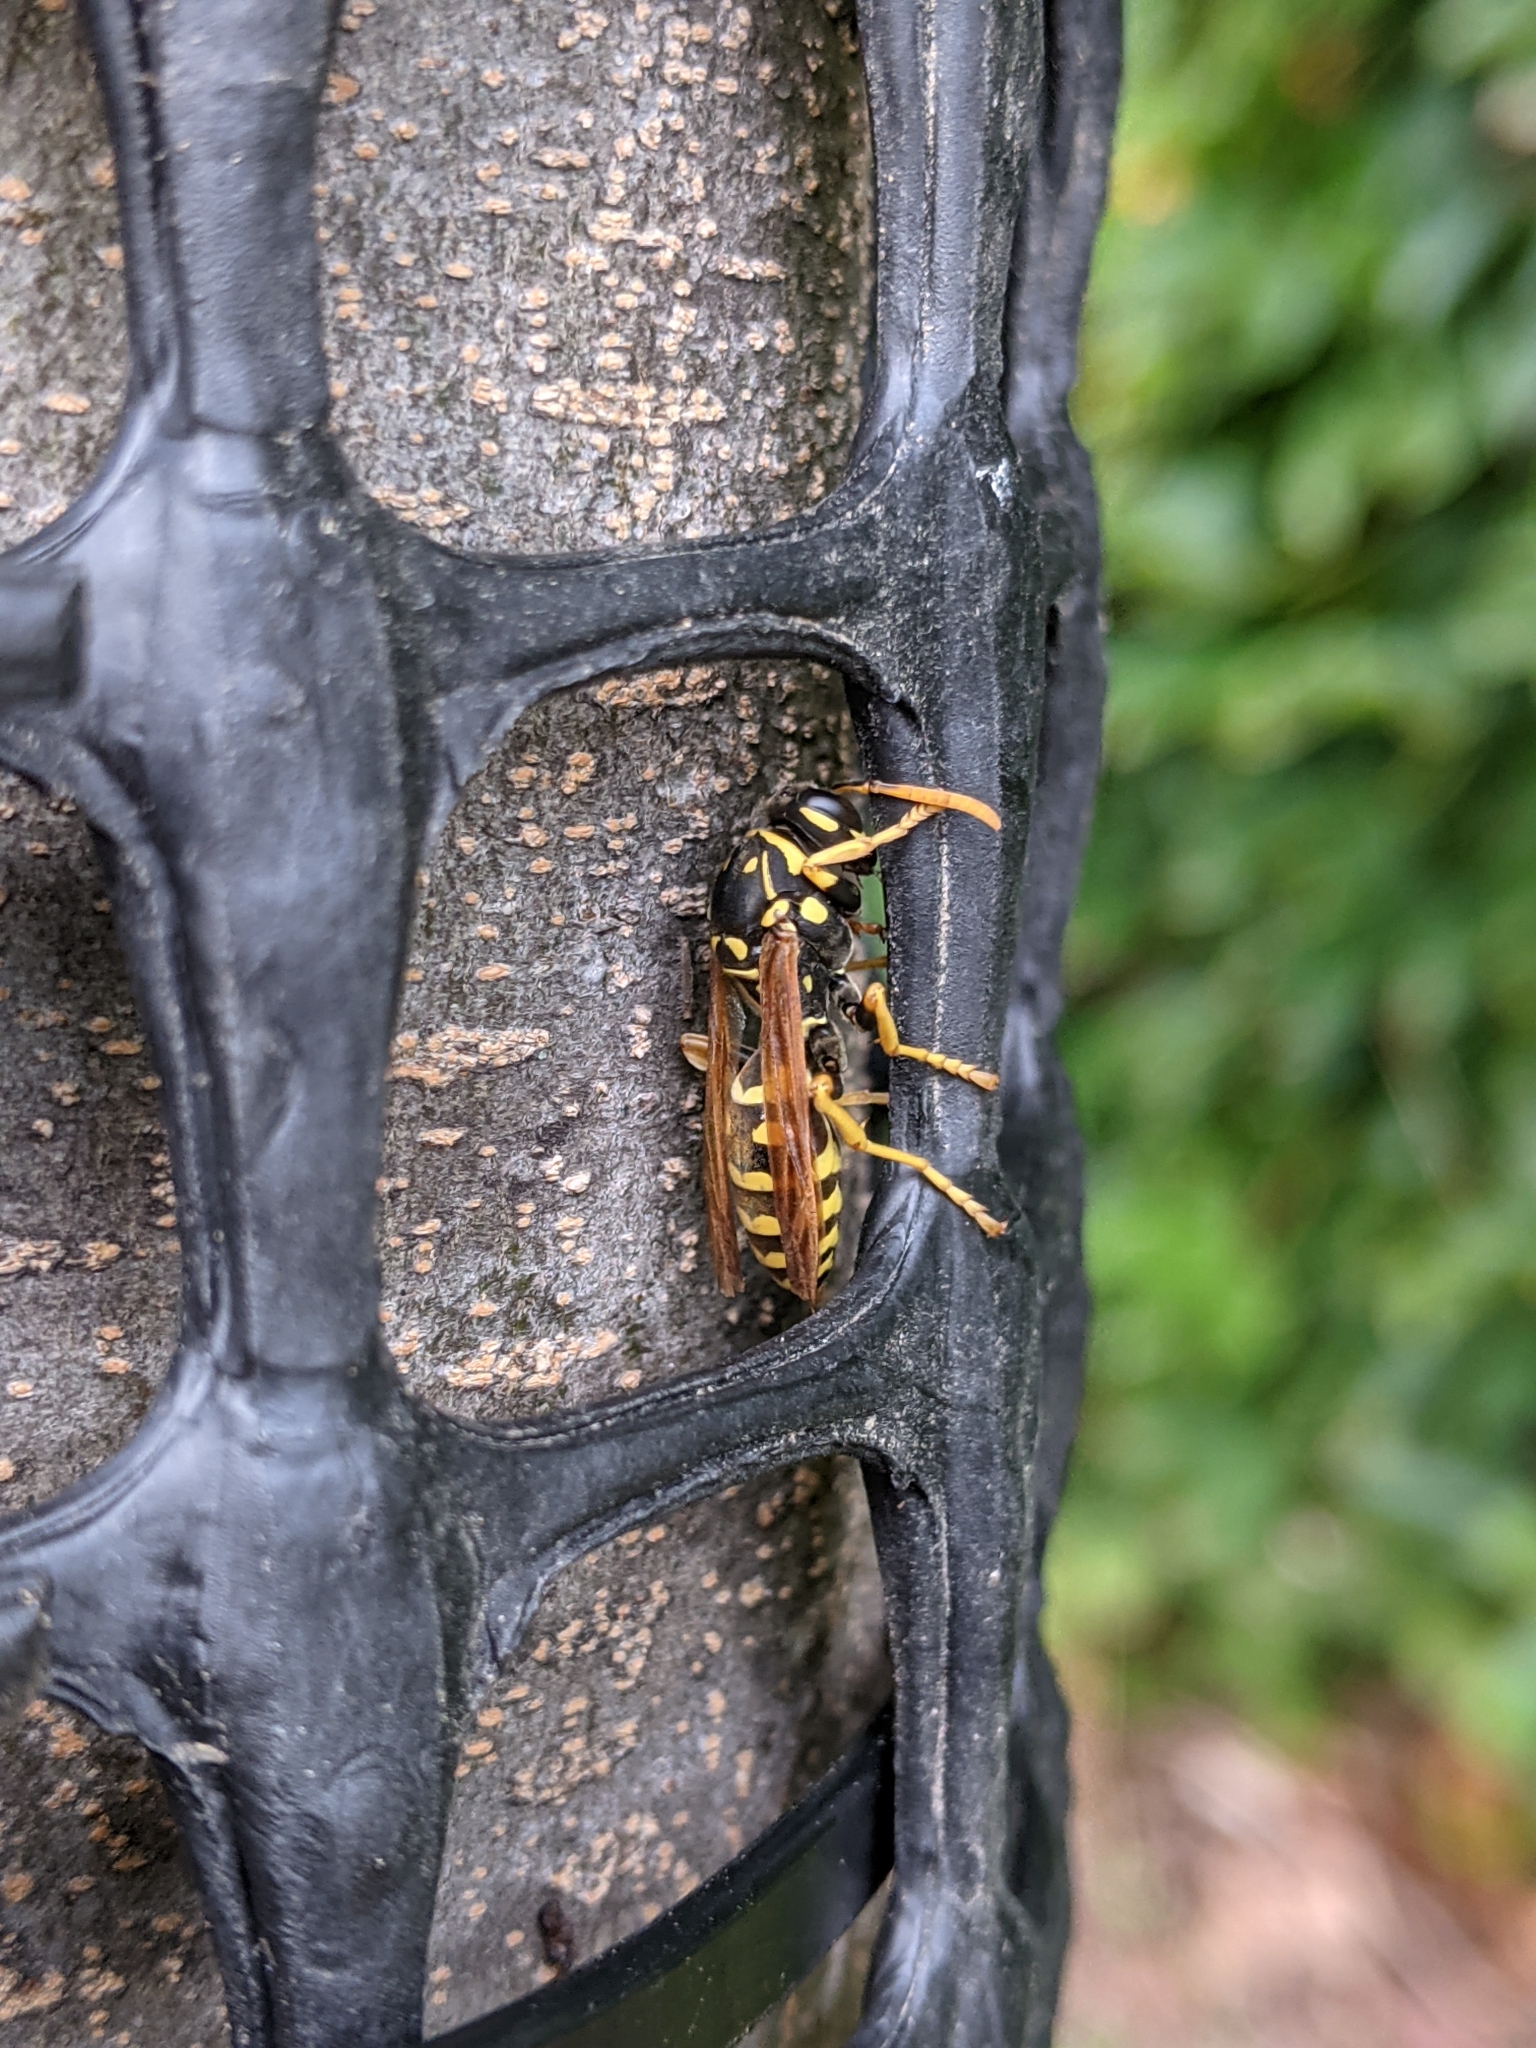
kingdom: Animalia
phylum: Arthropoda
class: Insecta
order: Hymenoptera
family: Eumenidae
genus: Polistes
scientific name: Polistes dominula
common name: Paper wasp
